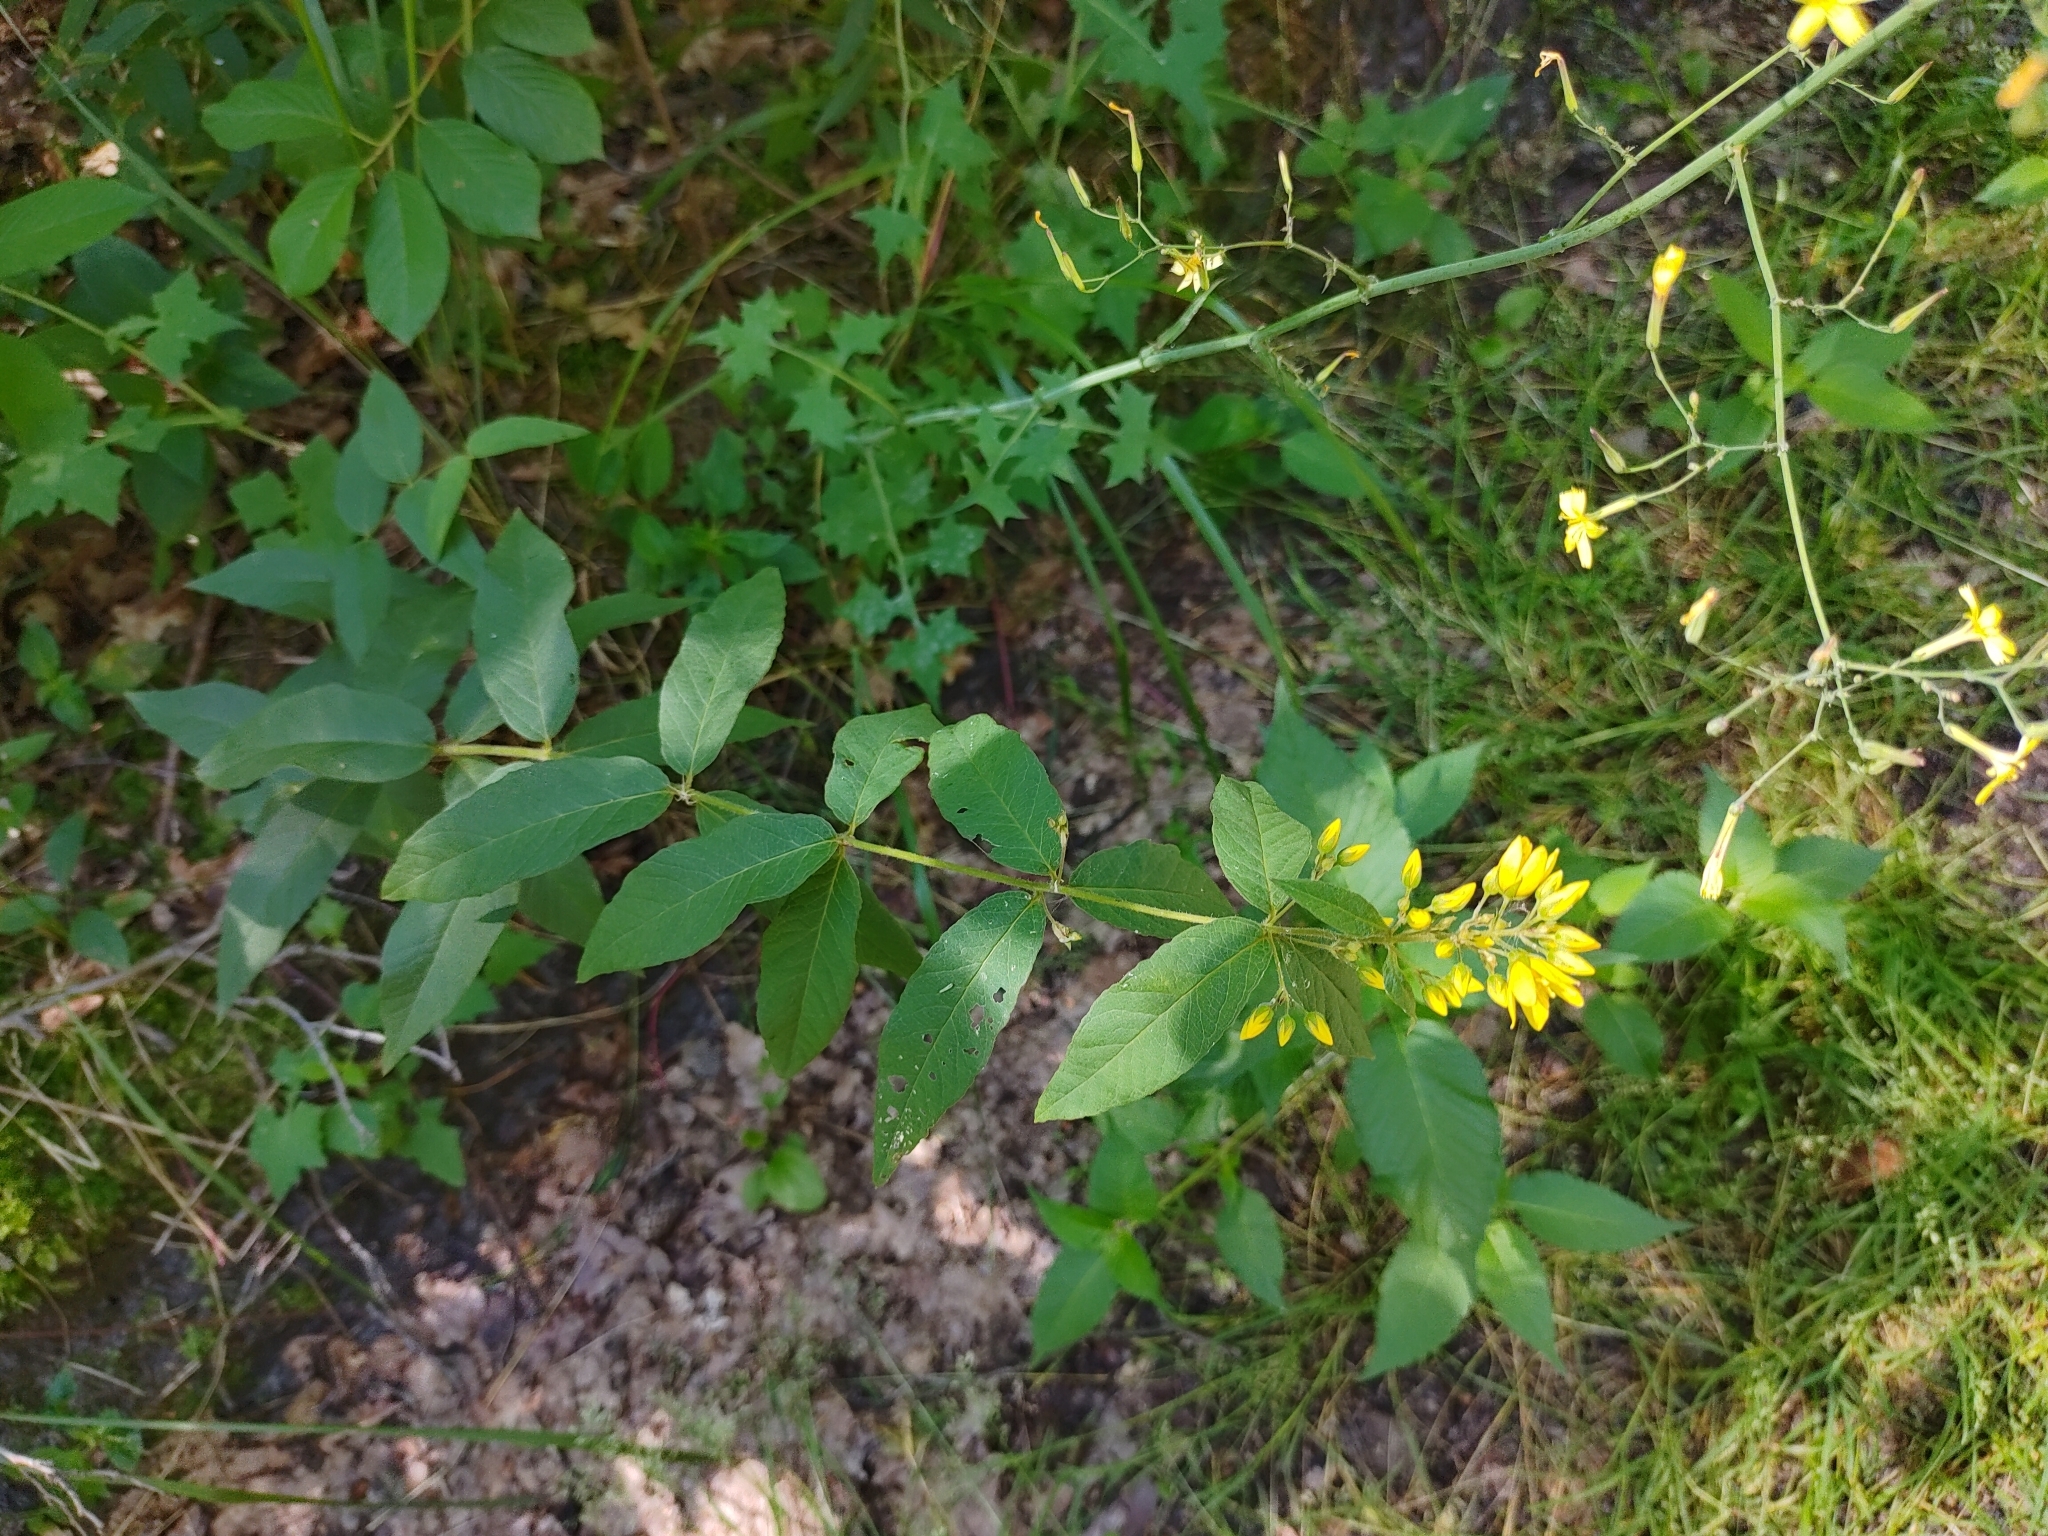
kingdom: Plantae
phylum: Tracheophyta
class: Magnoliopsida
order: Ericales
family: Primulaceae
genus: Lysimachia
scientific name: Lysimachia vulgaris
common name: Yellow loosestrife
